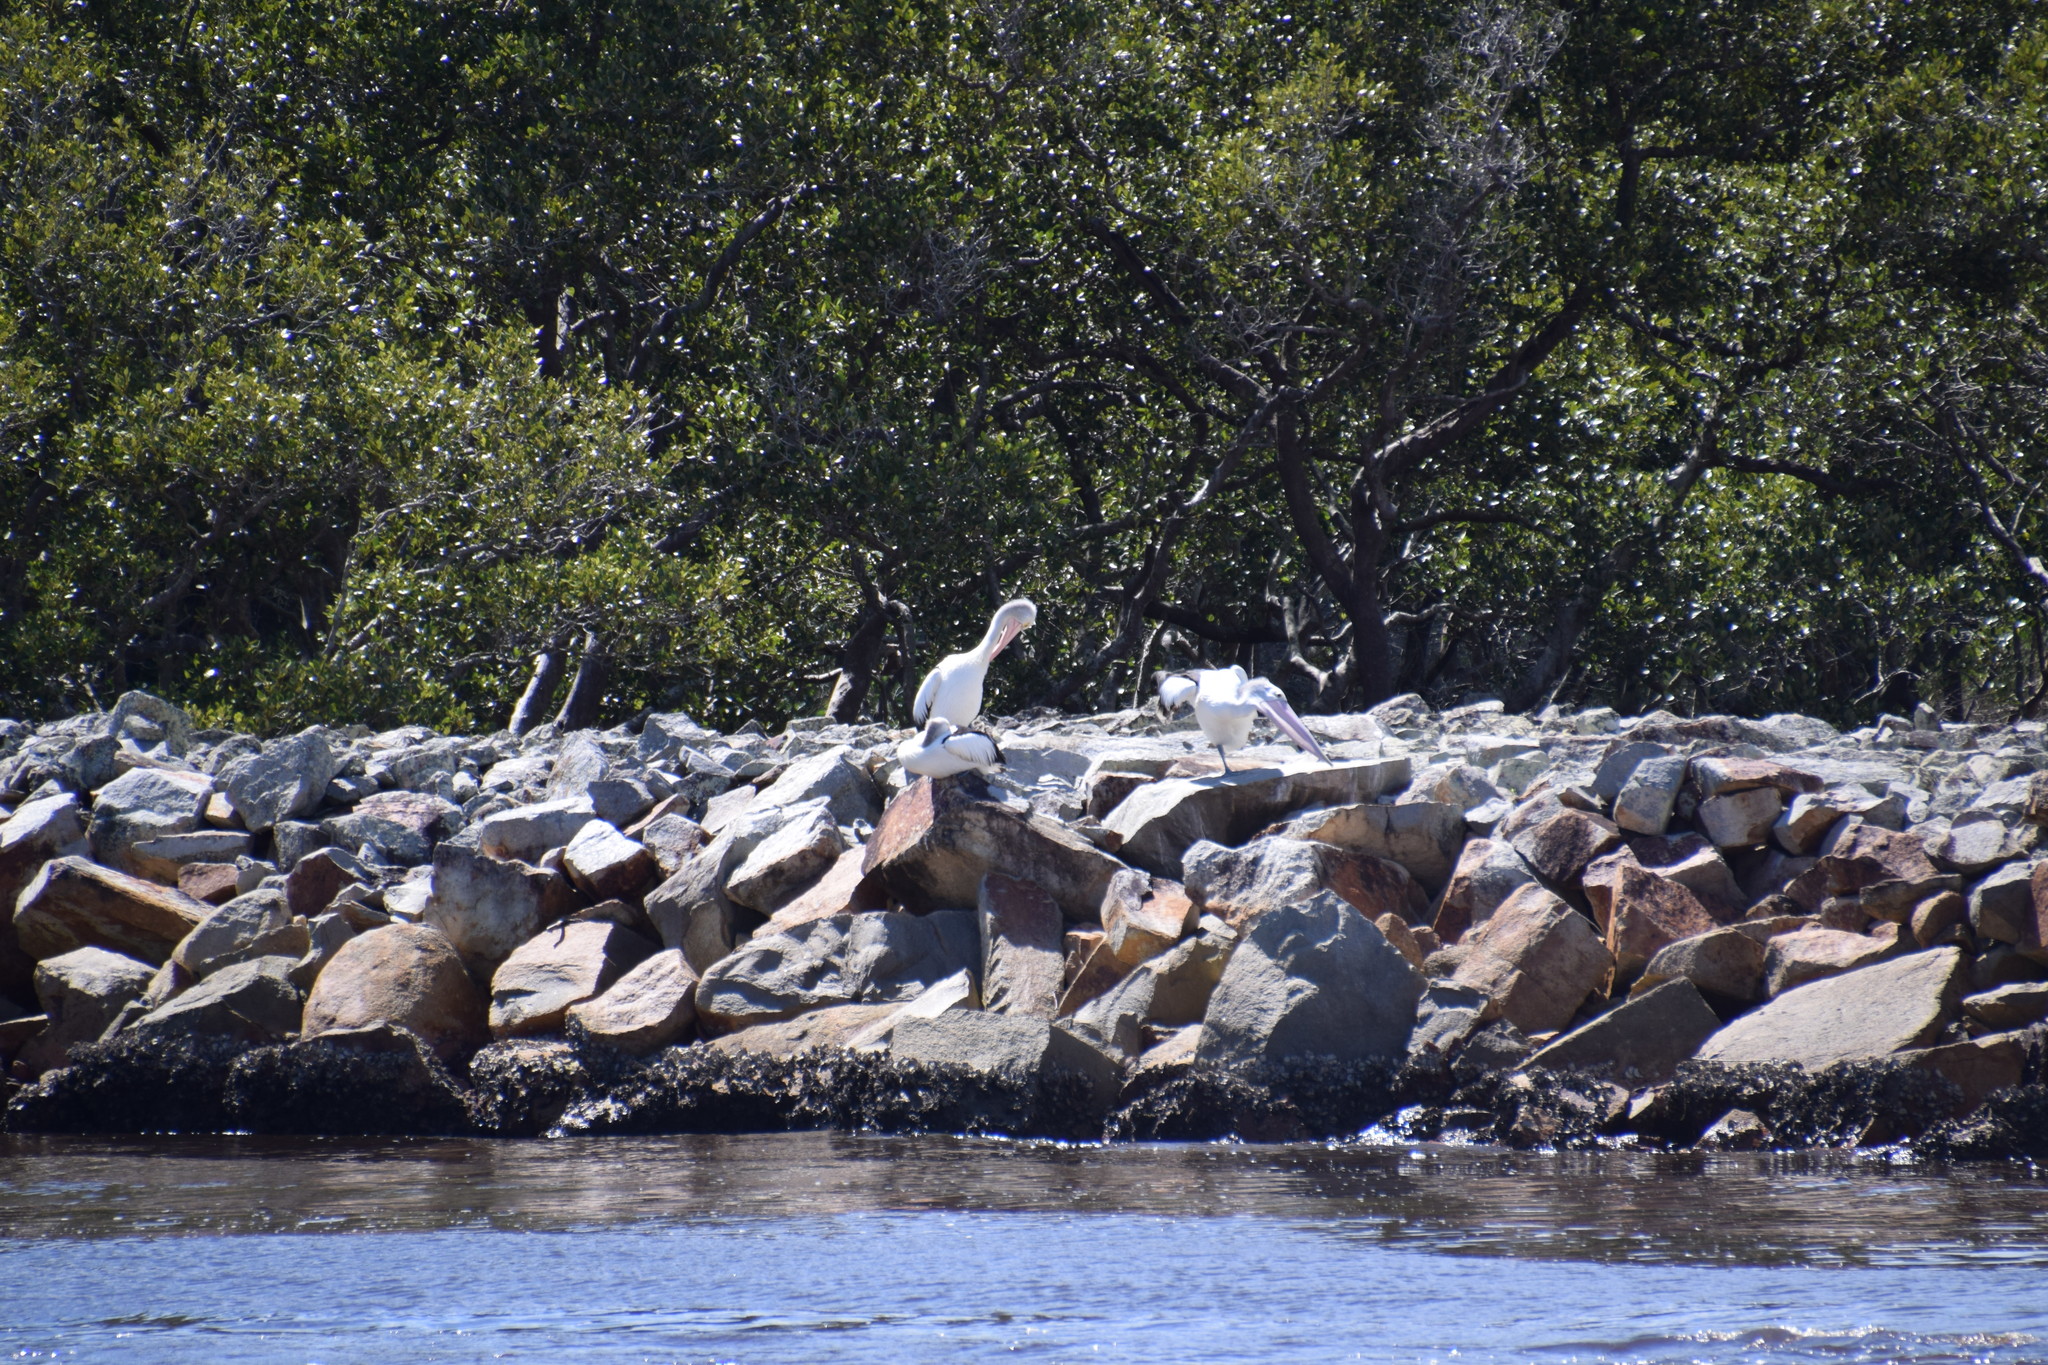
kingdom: Animalia
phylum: Chordata
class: Aves
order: Pelecaniformes
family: Pelecanidae
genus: Pelecanus
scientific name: Pelecanus conspicillatus
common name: Australian pelican
